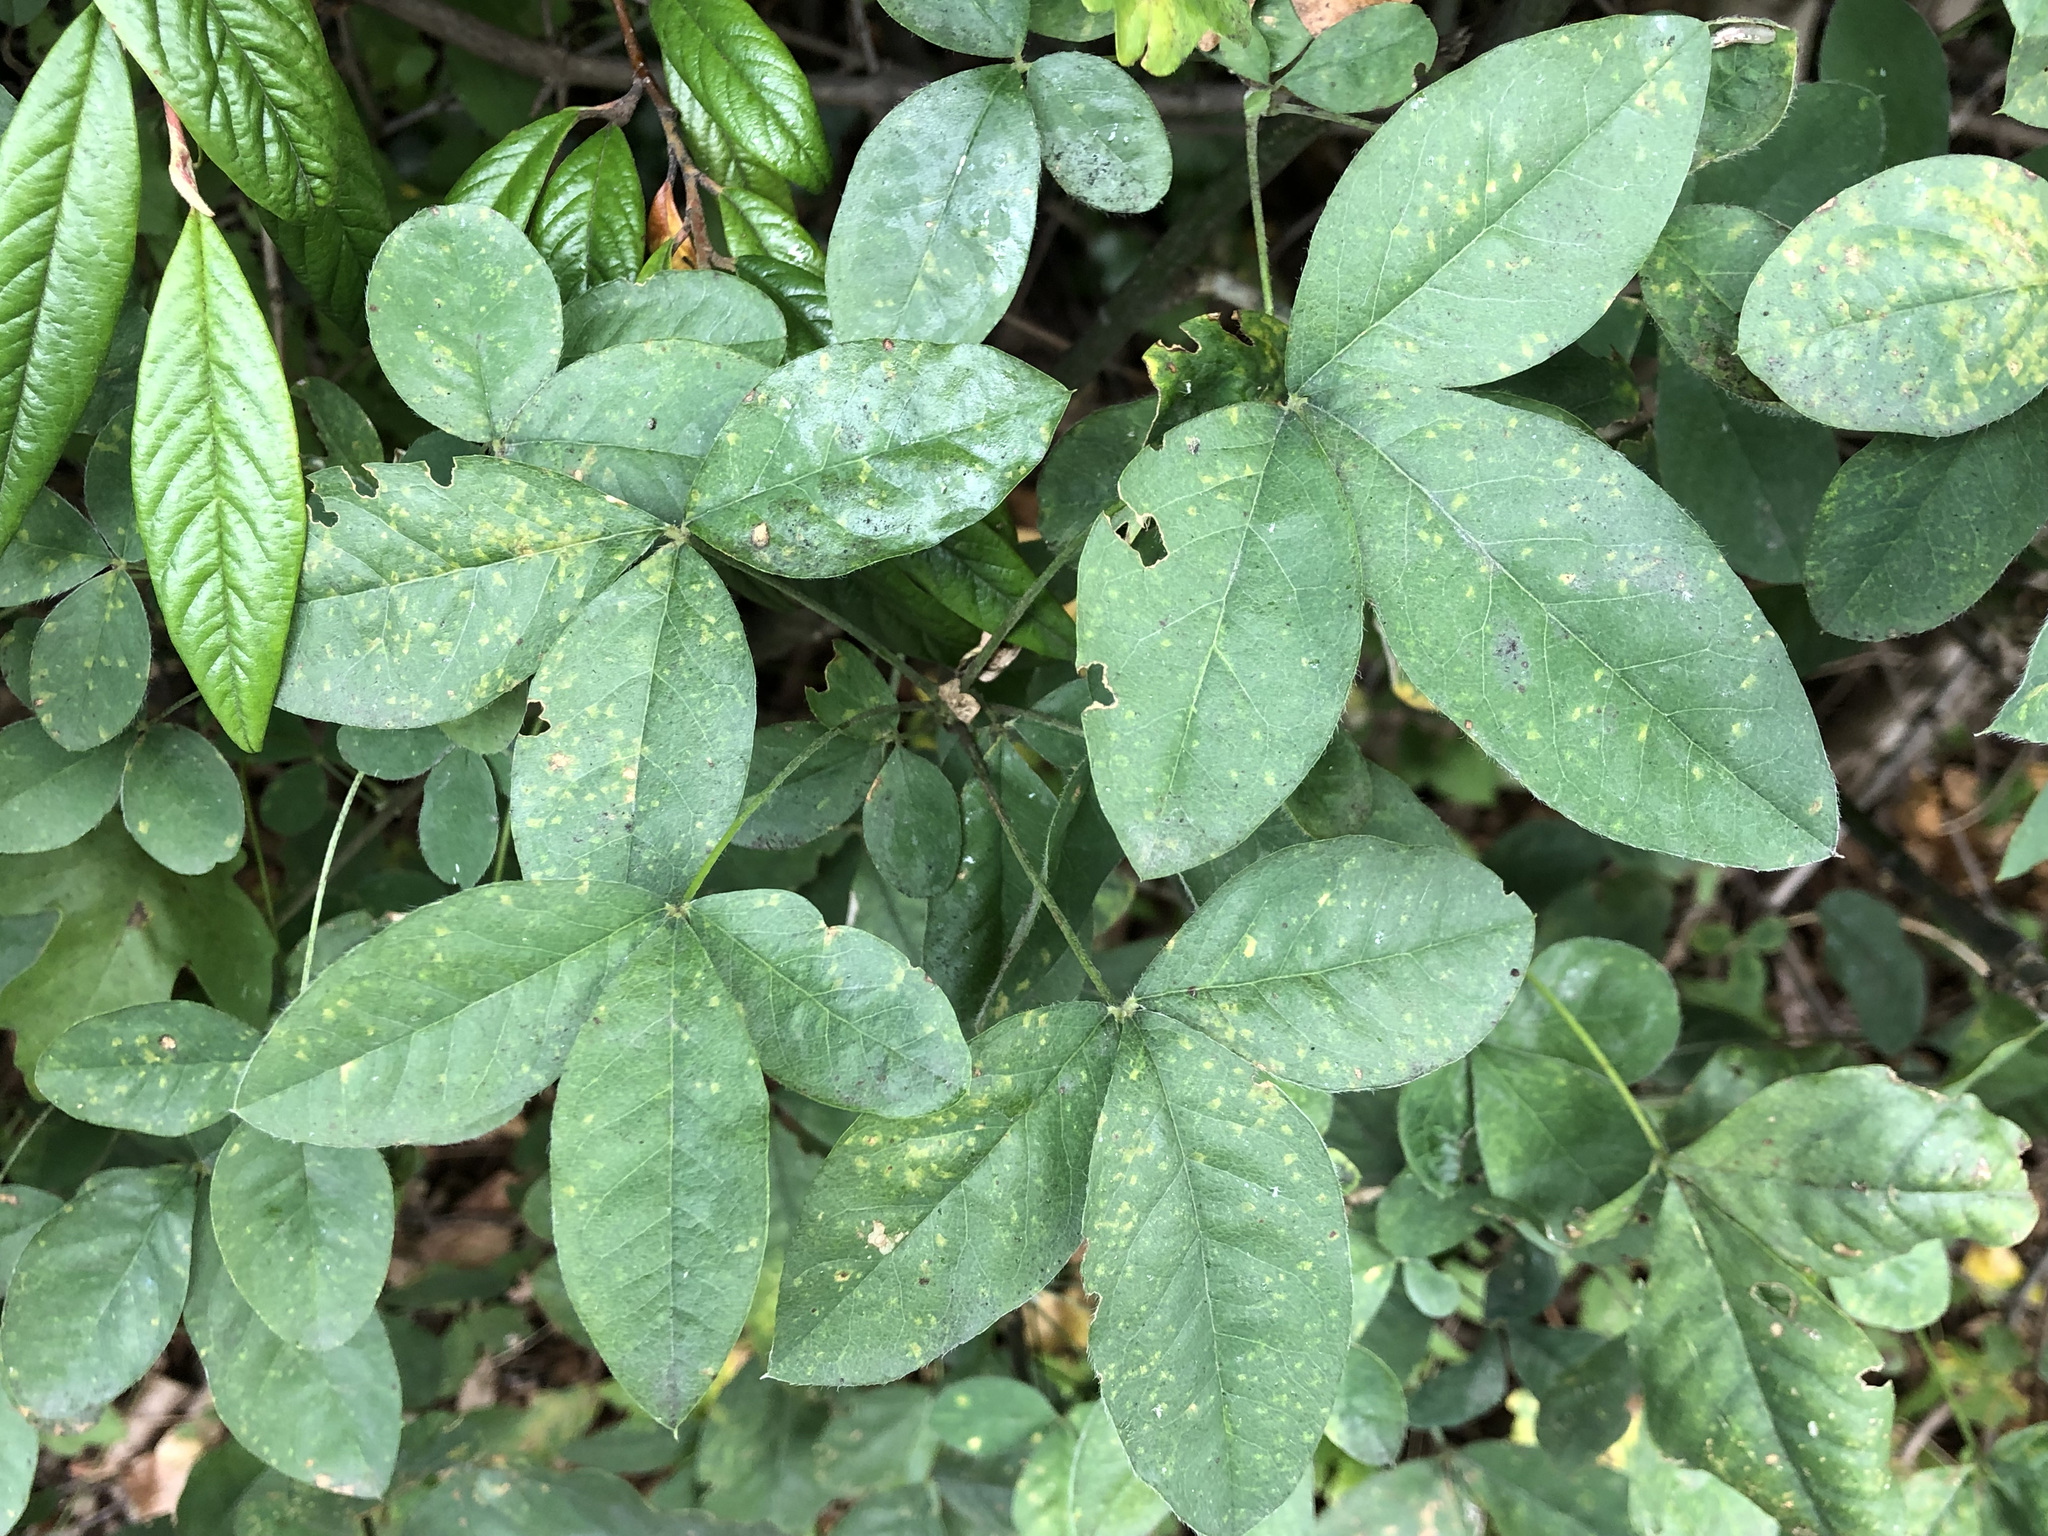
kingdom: Plantae
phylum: Tracheophyta
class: Magnoliopsida
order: Fabales
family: Fabaceae
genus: Laburnum
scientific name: Laburnum anagyroides
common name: Laburnum
